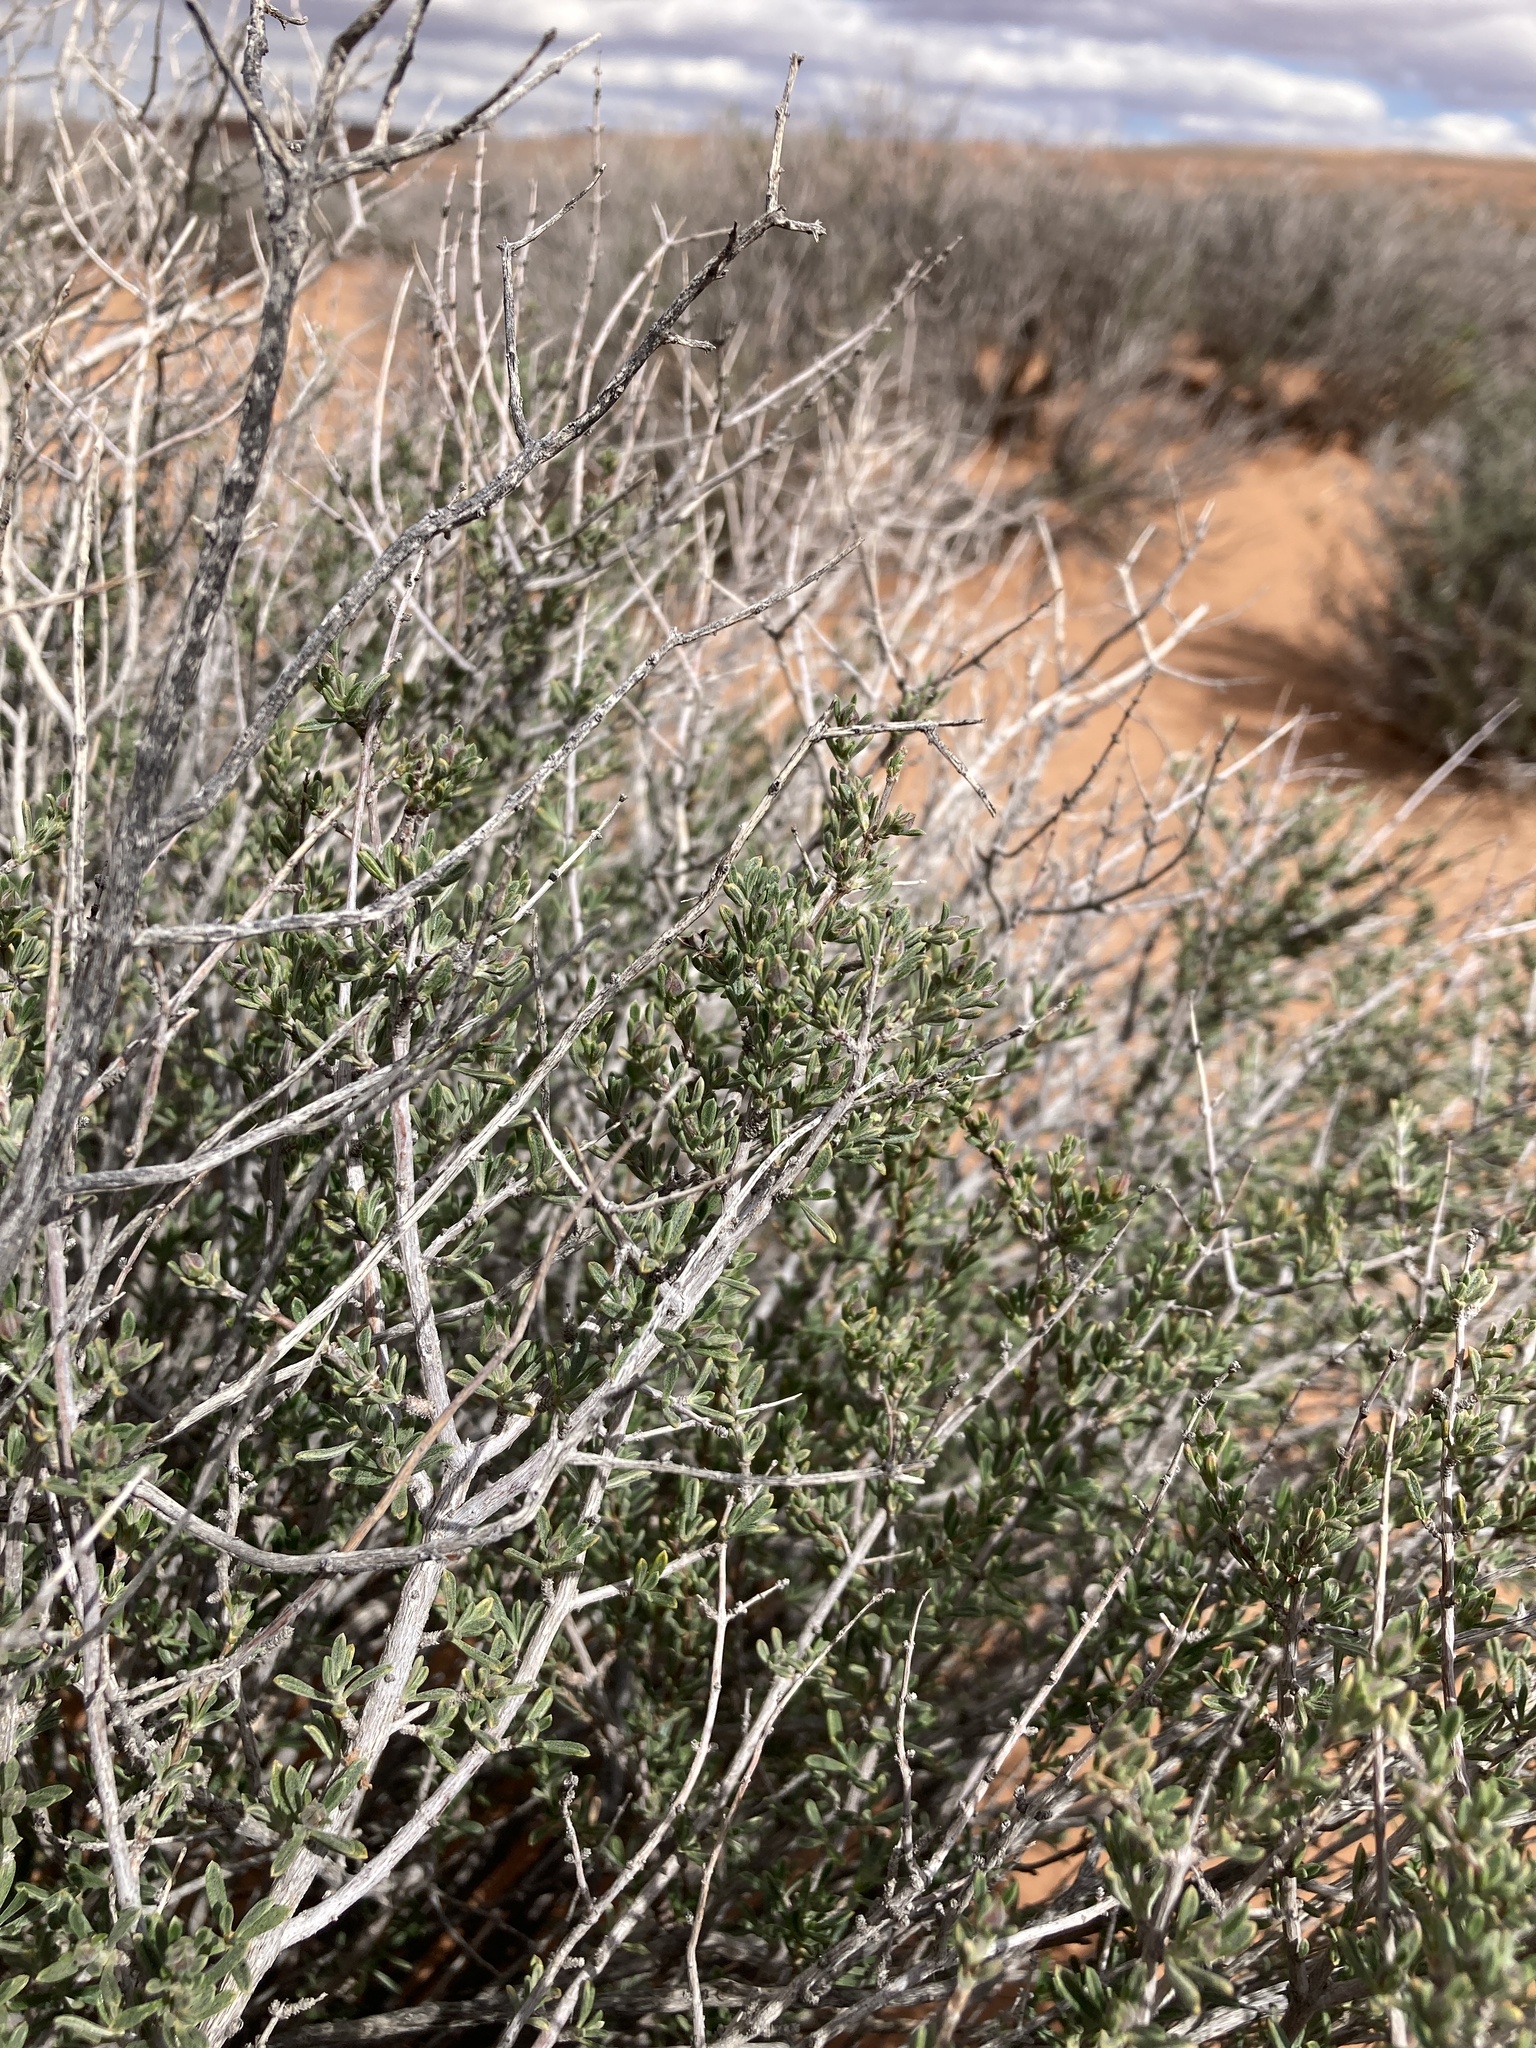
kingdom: Plantae
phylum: Tracheophyta
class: Magnoliopsida
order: Rosales
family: Rosaceae
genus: Coleogyne
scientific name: Coleogyne ramosissima
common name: Blackbrush
